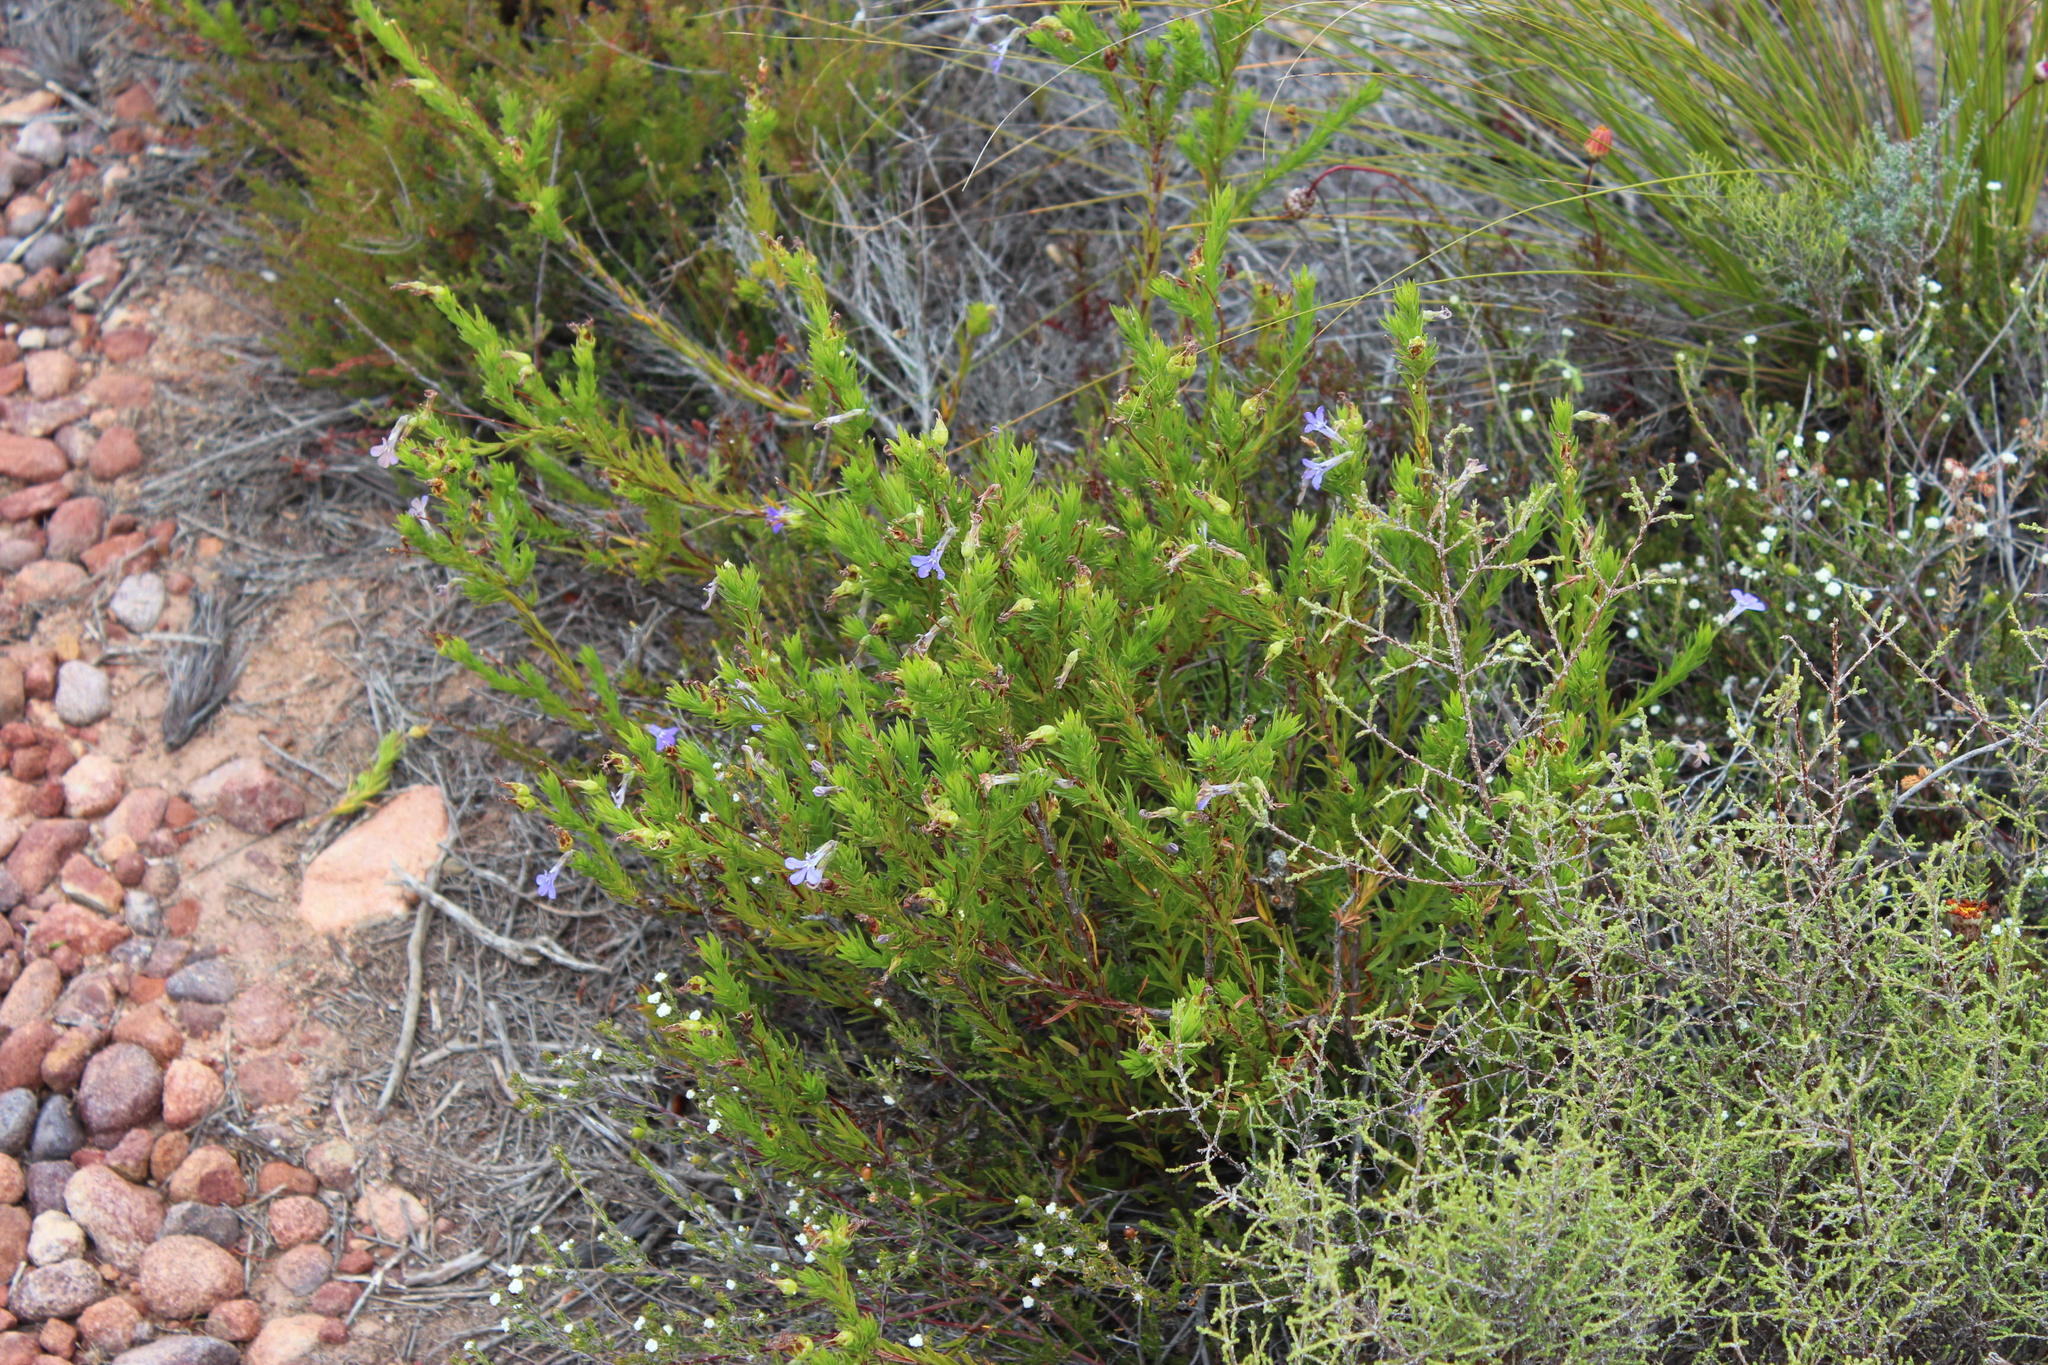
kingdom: Plantae
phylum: Tracheophyta
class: Magnoliopsida
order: Asterales
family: Campanulaceae
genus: Lobelia
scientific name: Lobelia pinifolia
